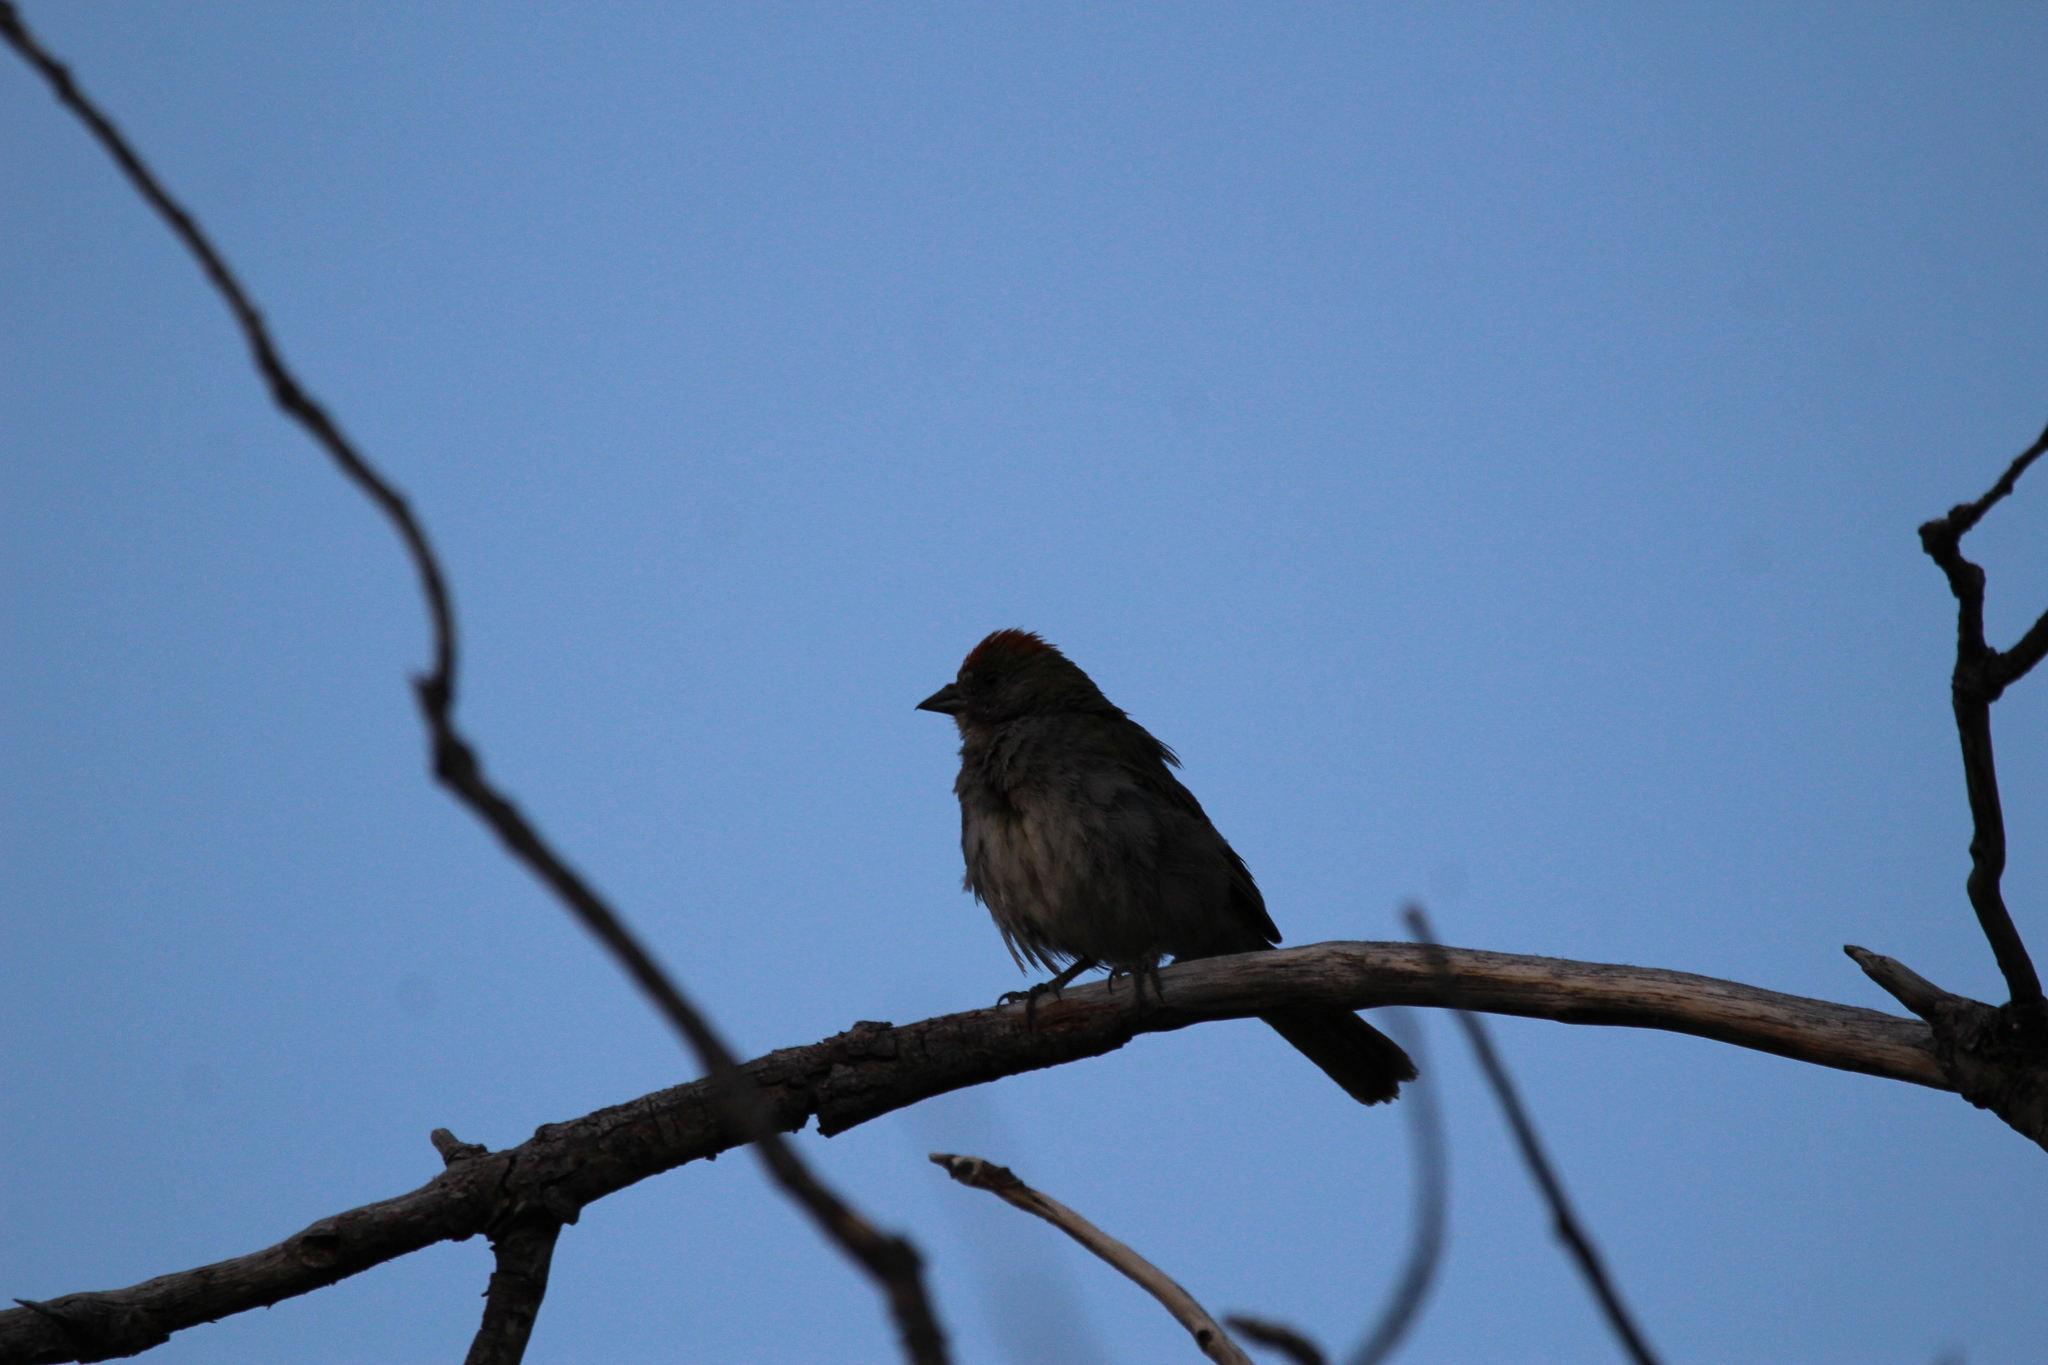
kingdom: Animalia
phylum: Chordata
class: Aves
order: Passeriformes
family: Passerellidae
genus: Pipilo
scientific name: Pipilo chlorurus
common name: Green-tailed towhee
